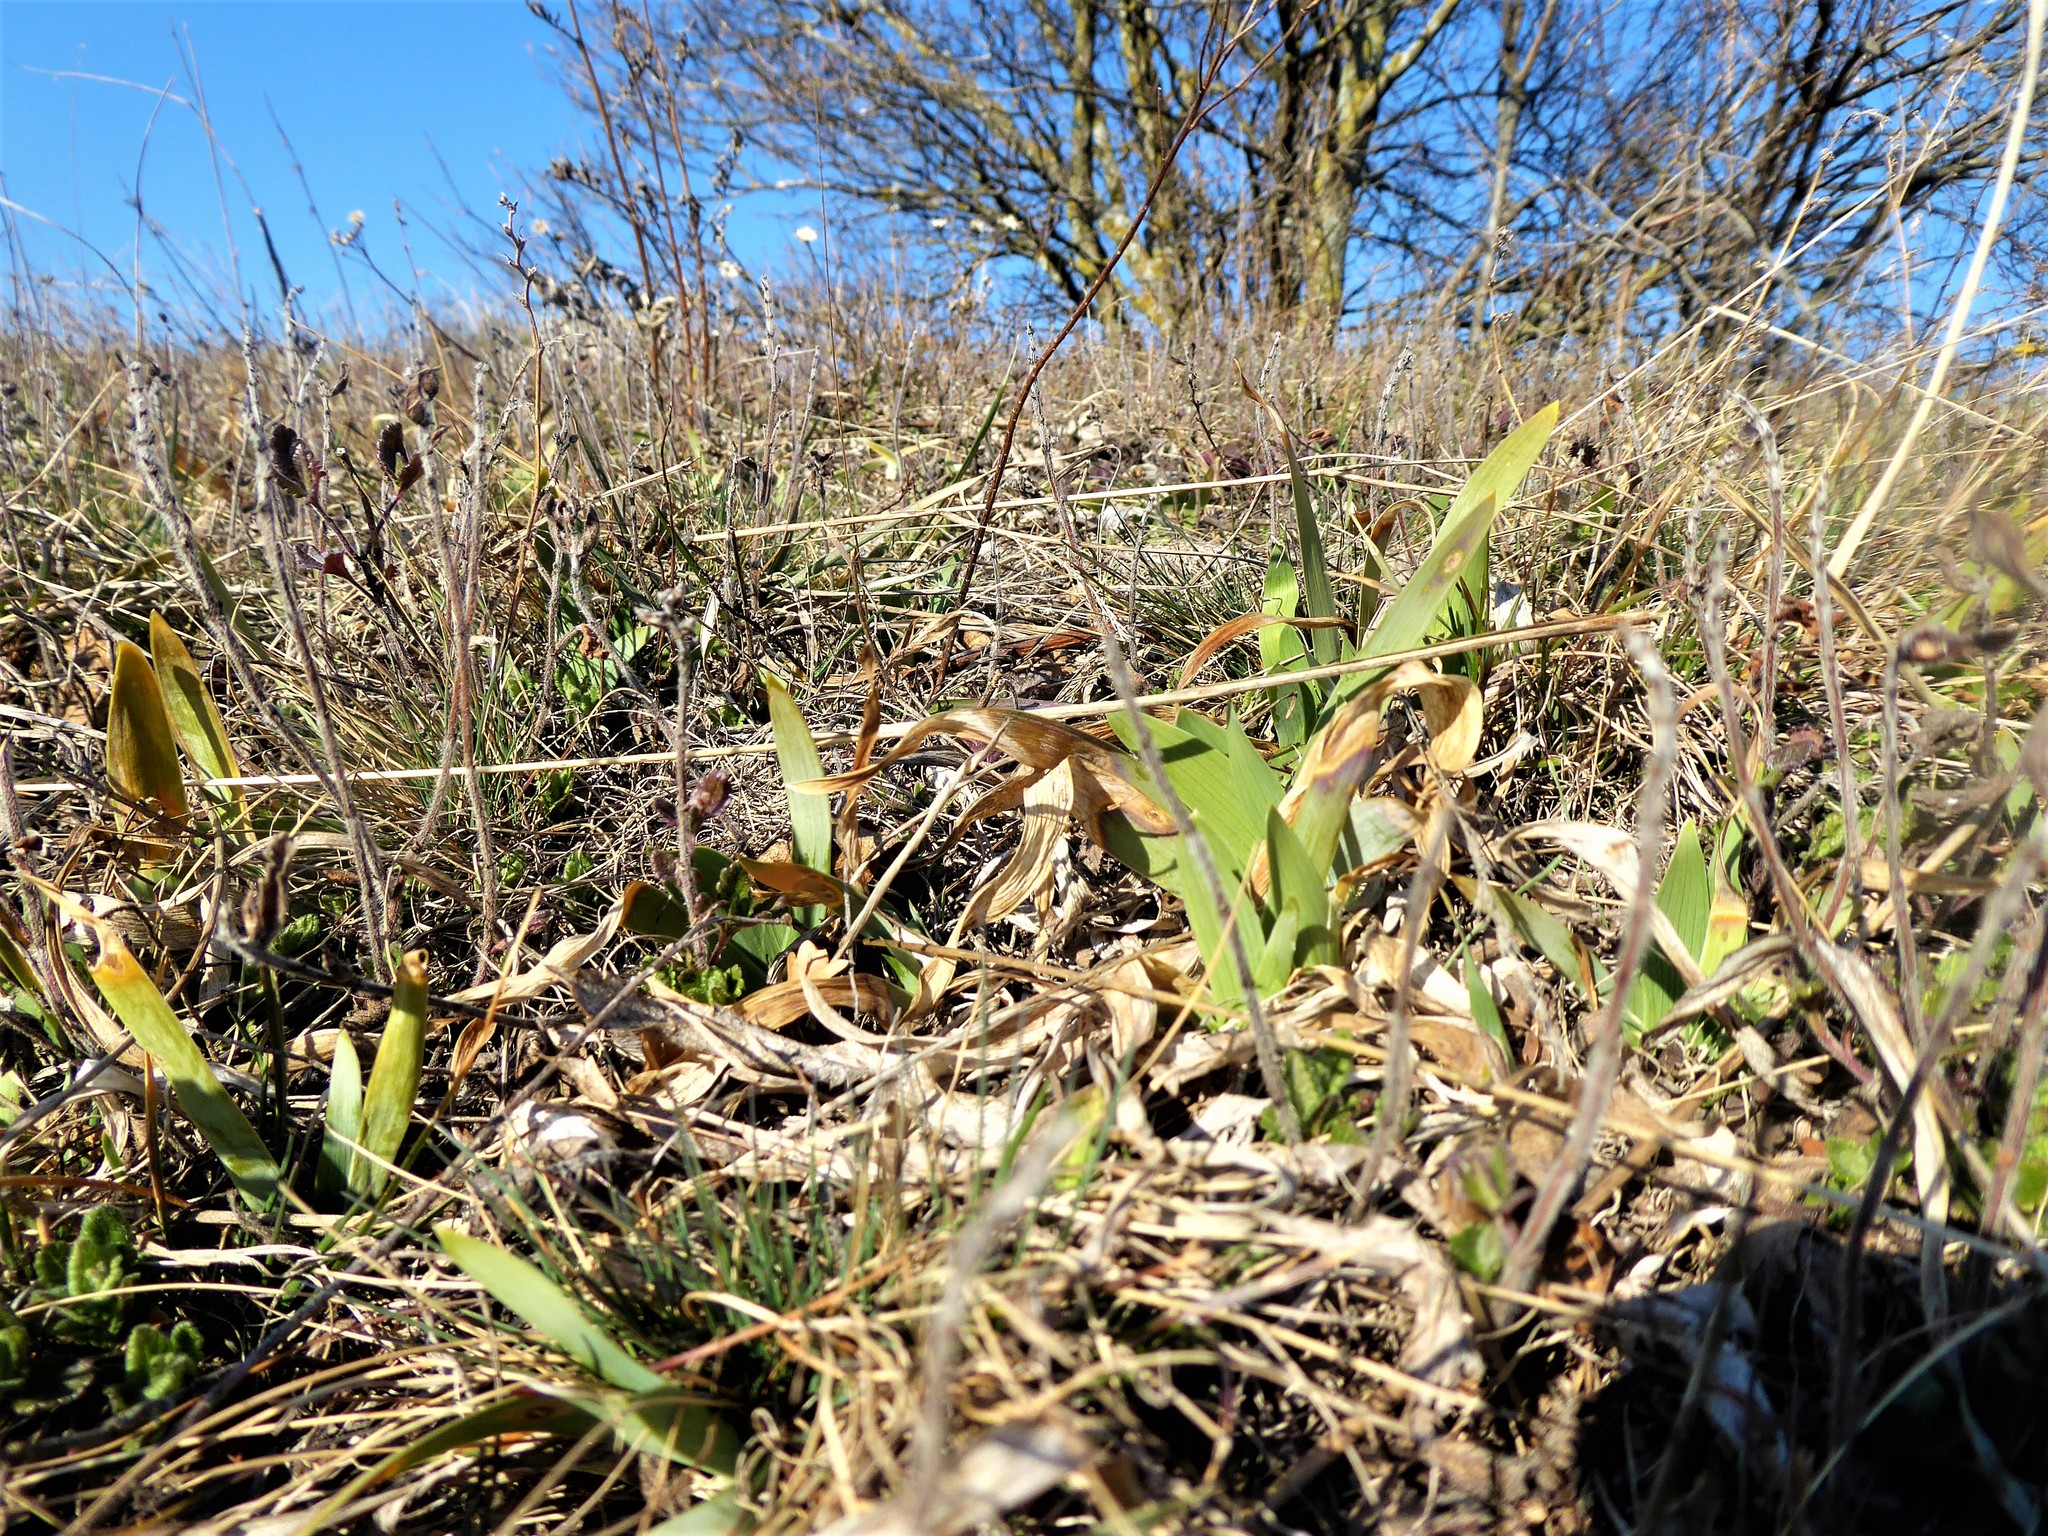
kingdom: Plantae
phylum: Tracheophyta
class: Liliopsida
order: Asparagales
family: Iridaceae
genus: Iris
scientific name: Iris pumila
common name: Dwarf iris
